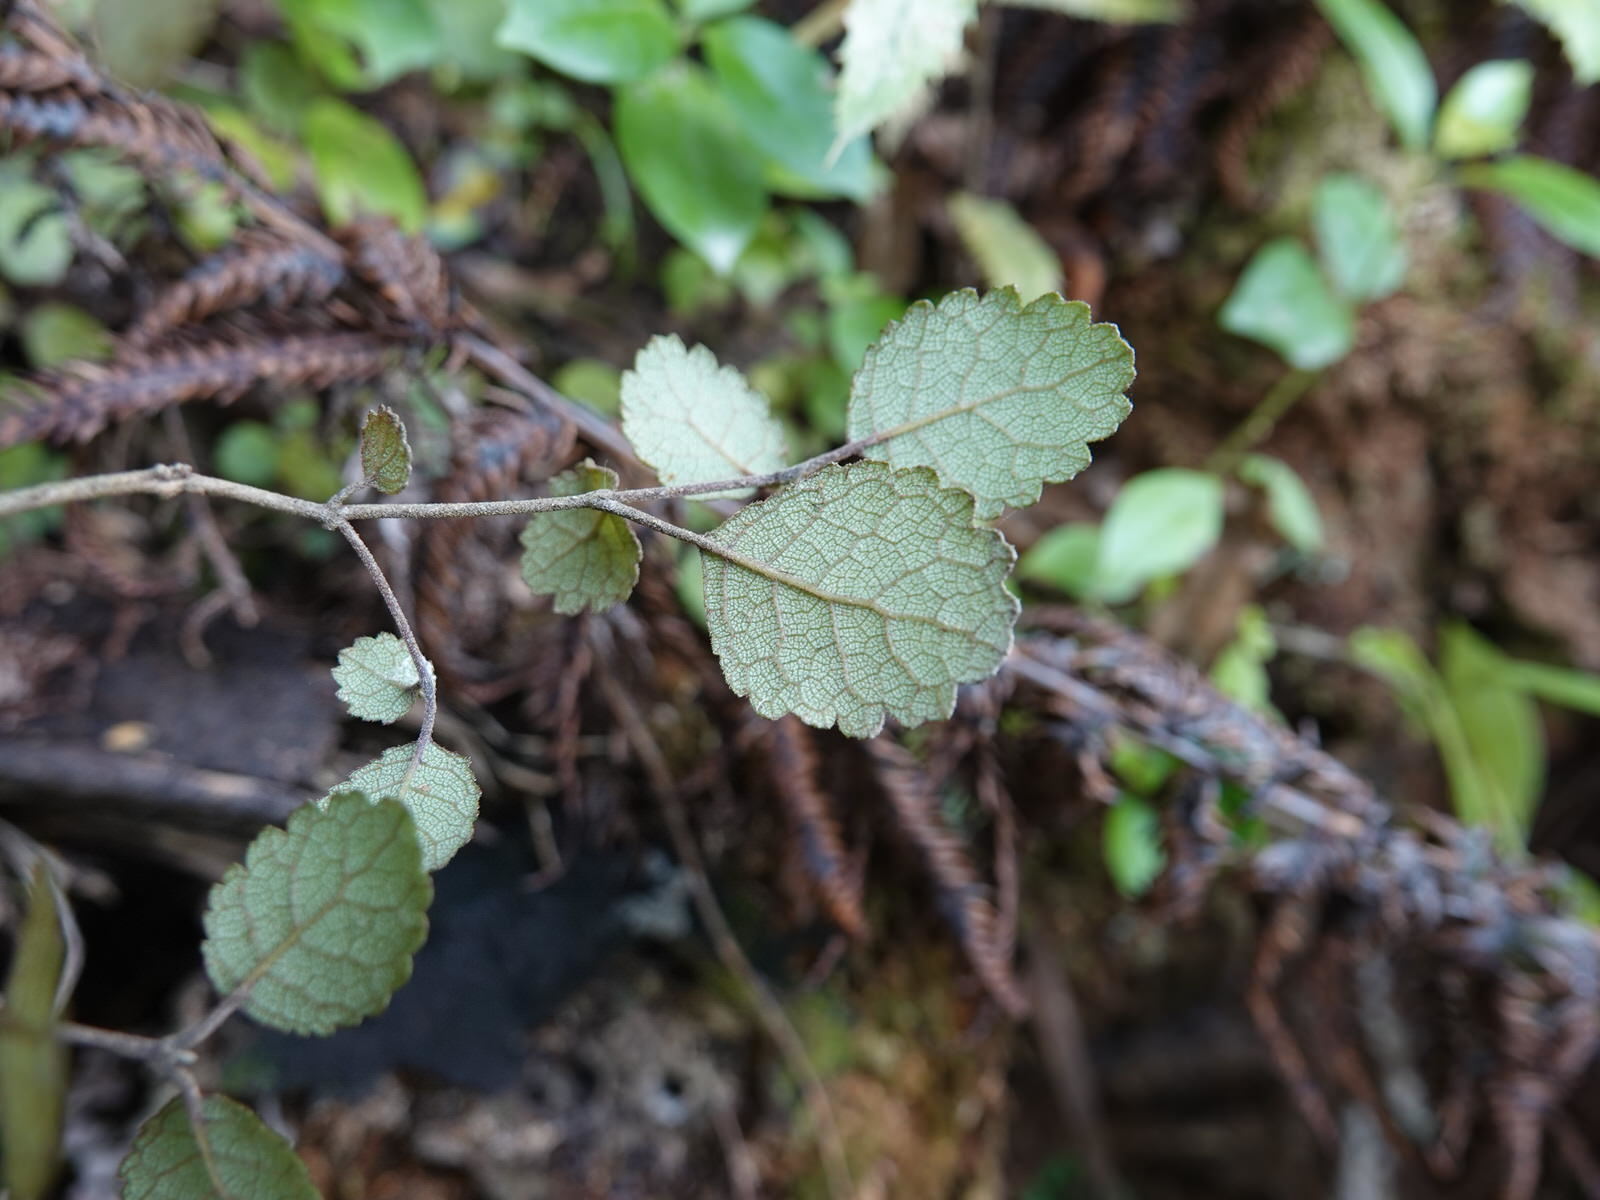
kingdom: Plantae
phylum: Tracheophyta
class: Magnoliopsida
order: Lamiales
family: Gesneriaceae
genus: Rhabdothamnus
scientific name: Rhabdothamnus solandri
